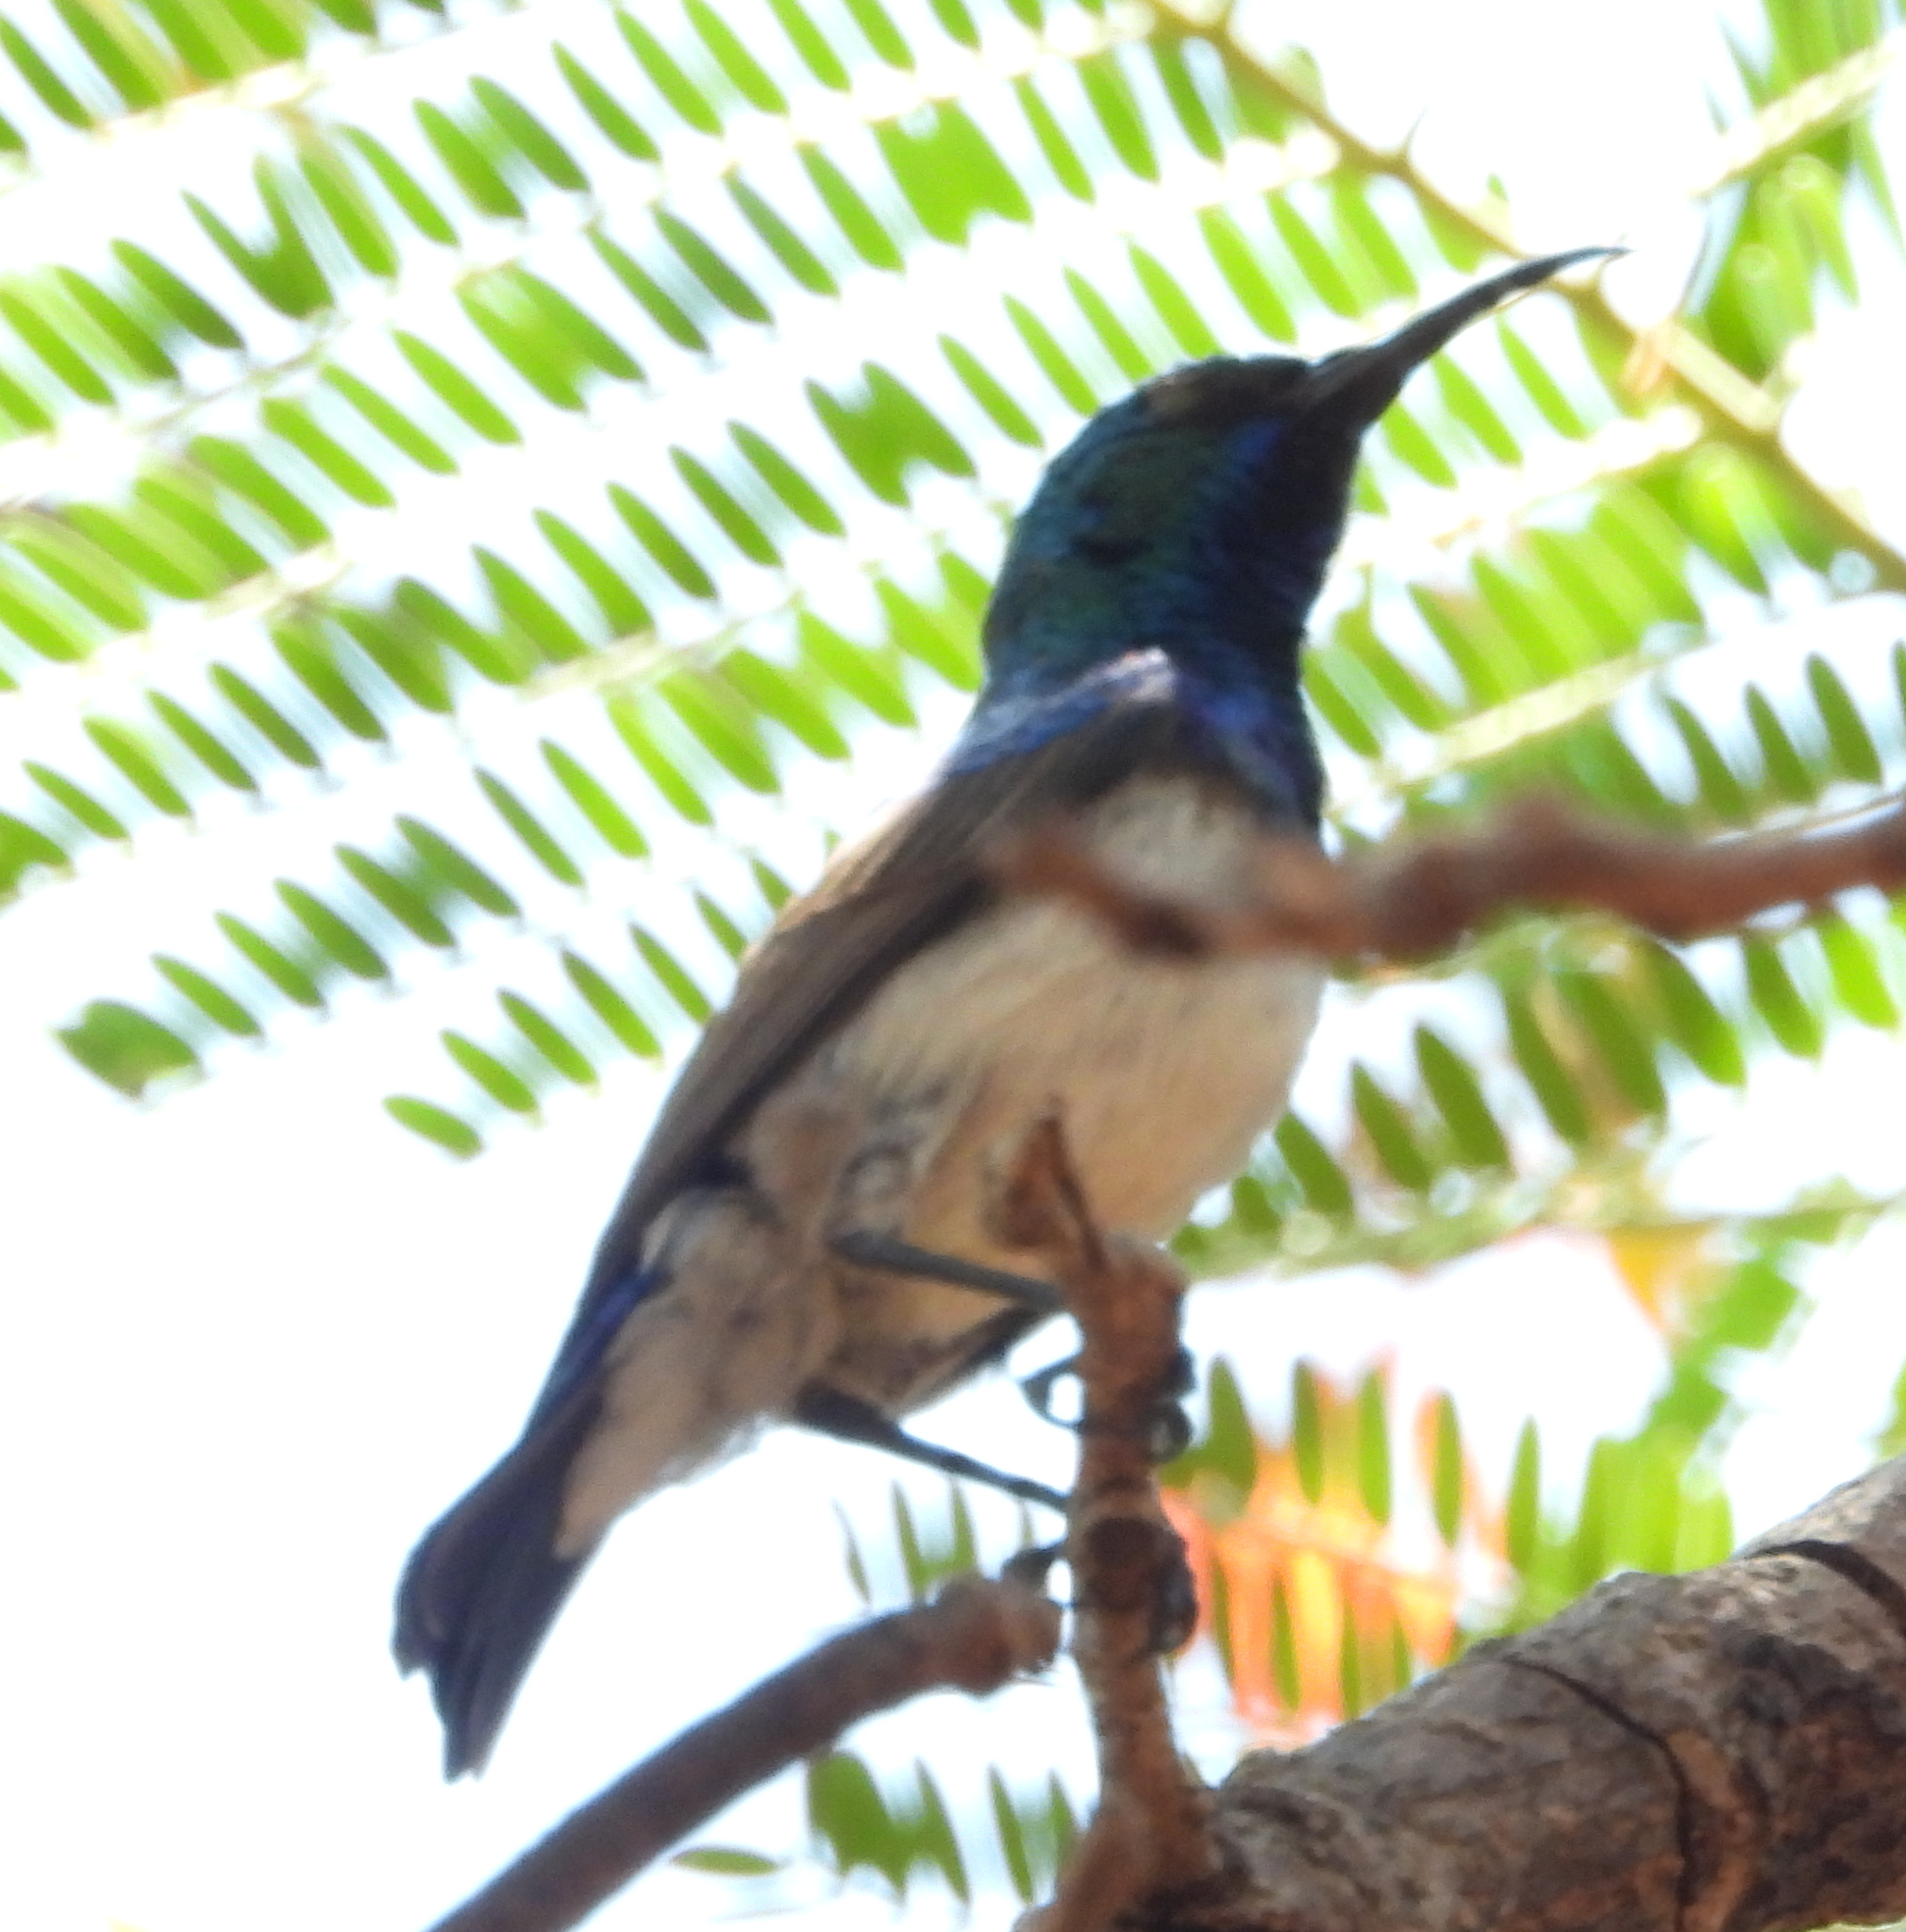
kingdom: Animalia
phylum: Chordata
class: Aves
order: Passeriformes
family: Nectariniidae
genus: Cinnyris
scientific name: Cinnyris talatala
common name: White-bellied sunbird
